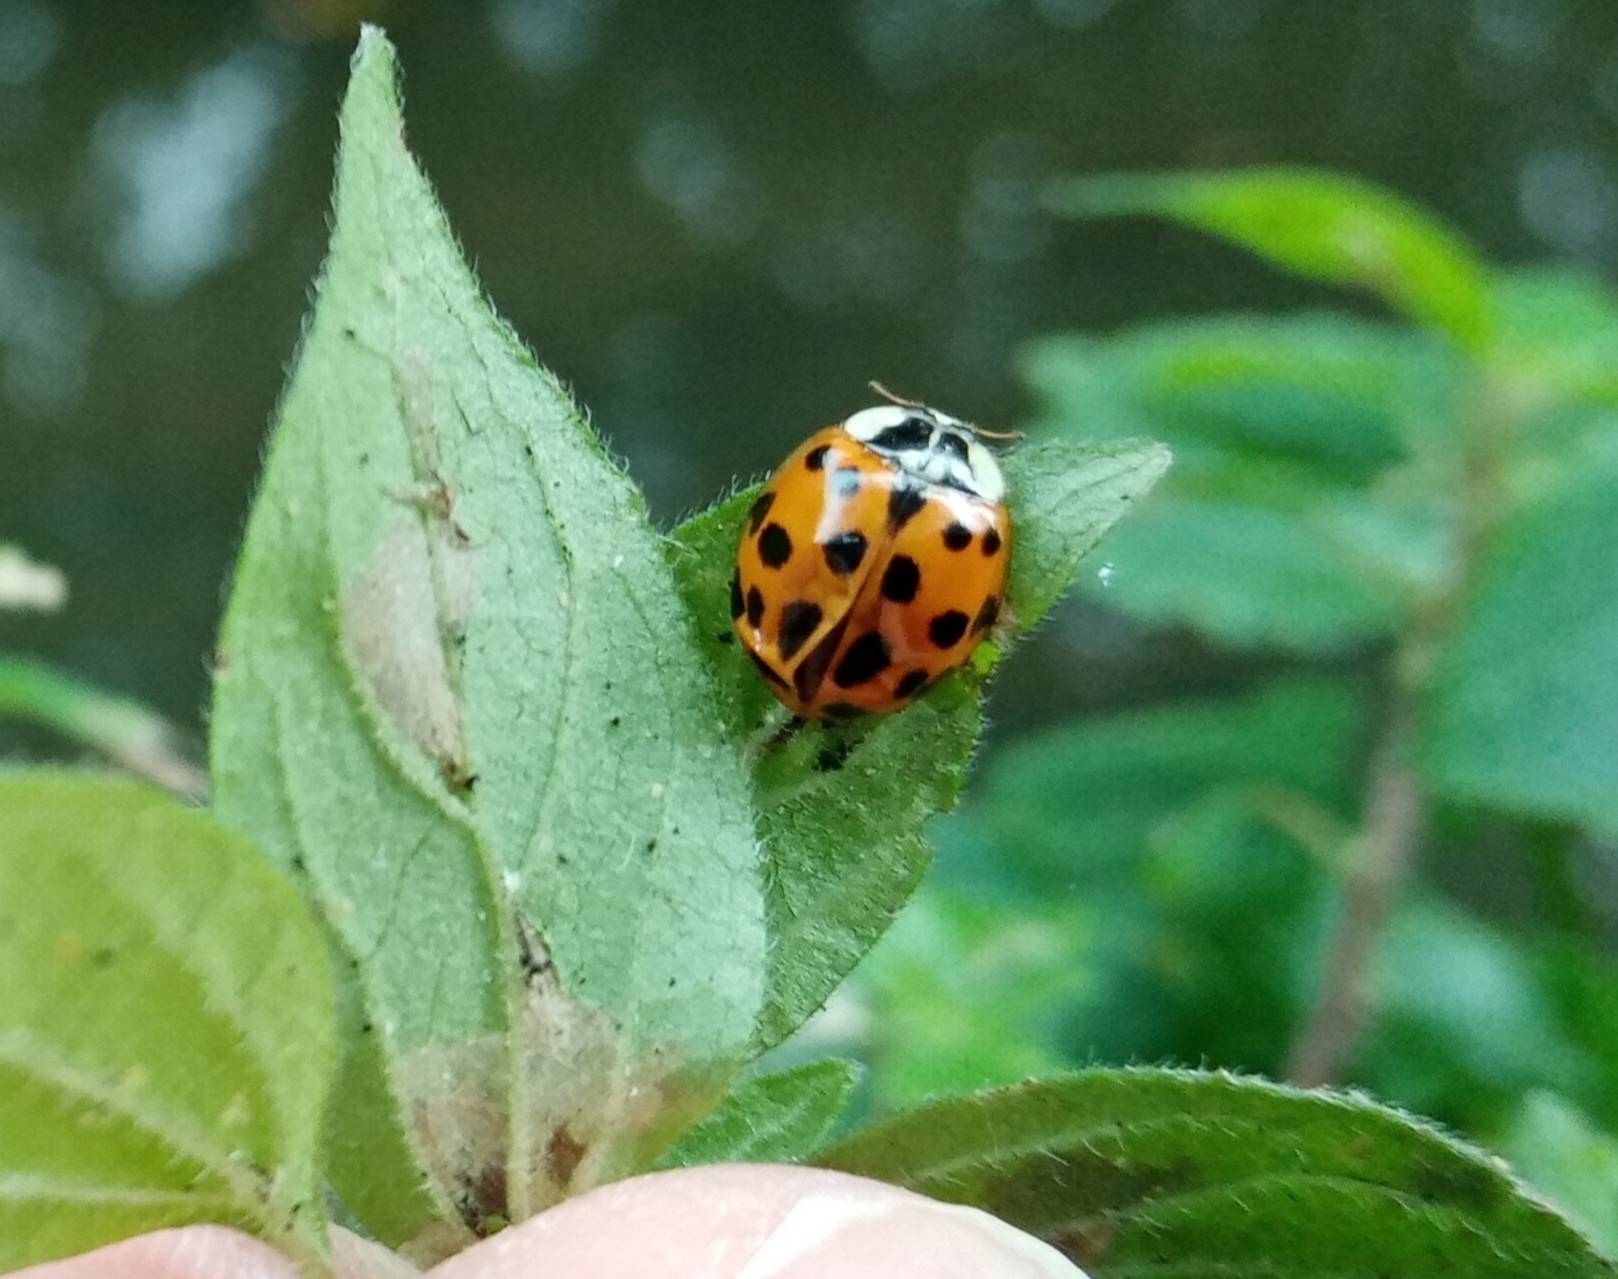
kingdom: Animalia
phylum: Arthropoda
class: Insecta
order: Coleoptera
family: Coccinellidae
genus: Harmonia
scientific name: Harmonia axyridis
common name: Harlequin ladybird
